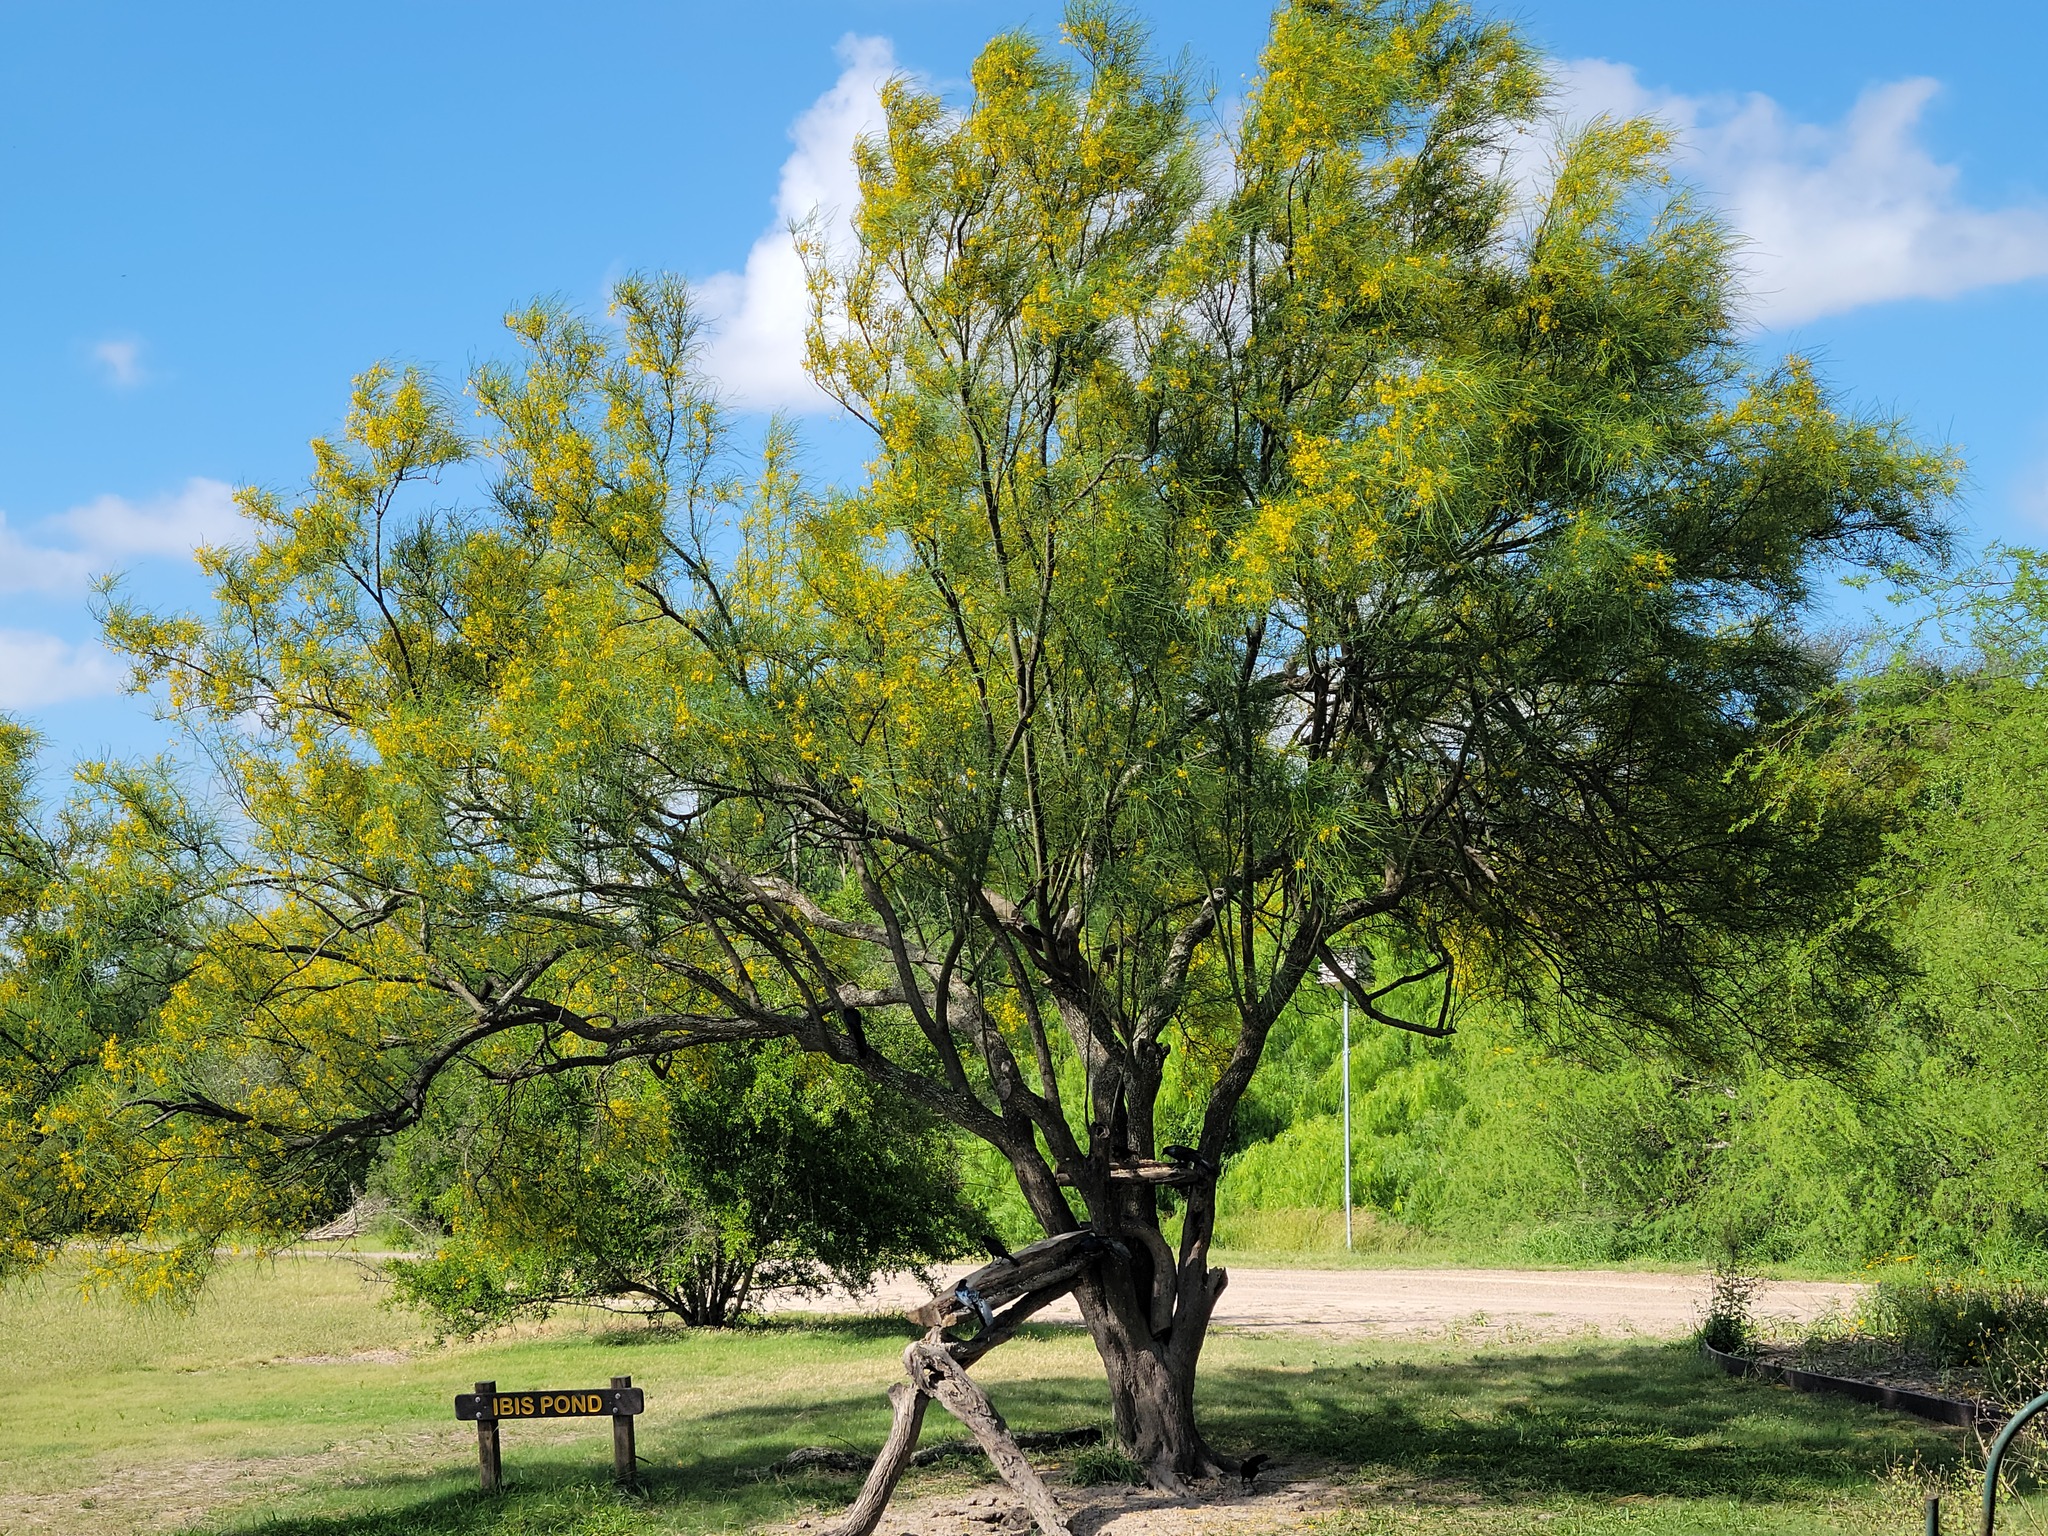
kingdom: Plantae
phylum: Tracheophyta
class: Magnoliopsida
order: Fabales
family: Fabaceae
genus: Parkinsonia
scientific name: Parkinsonia aculeata
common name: Jerusalem thorn
